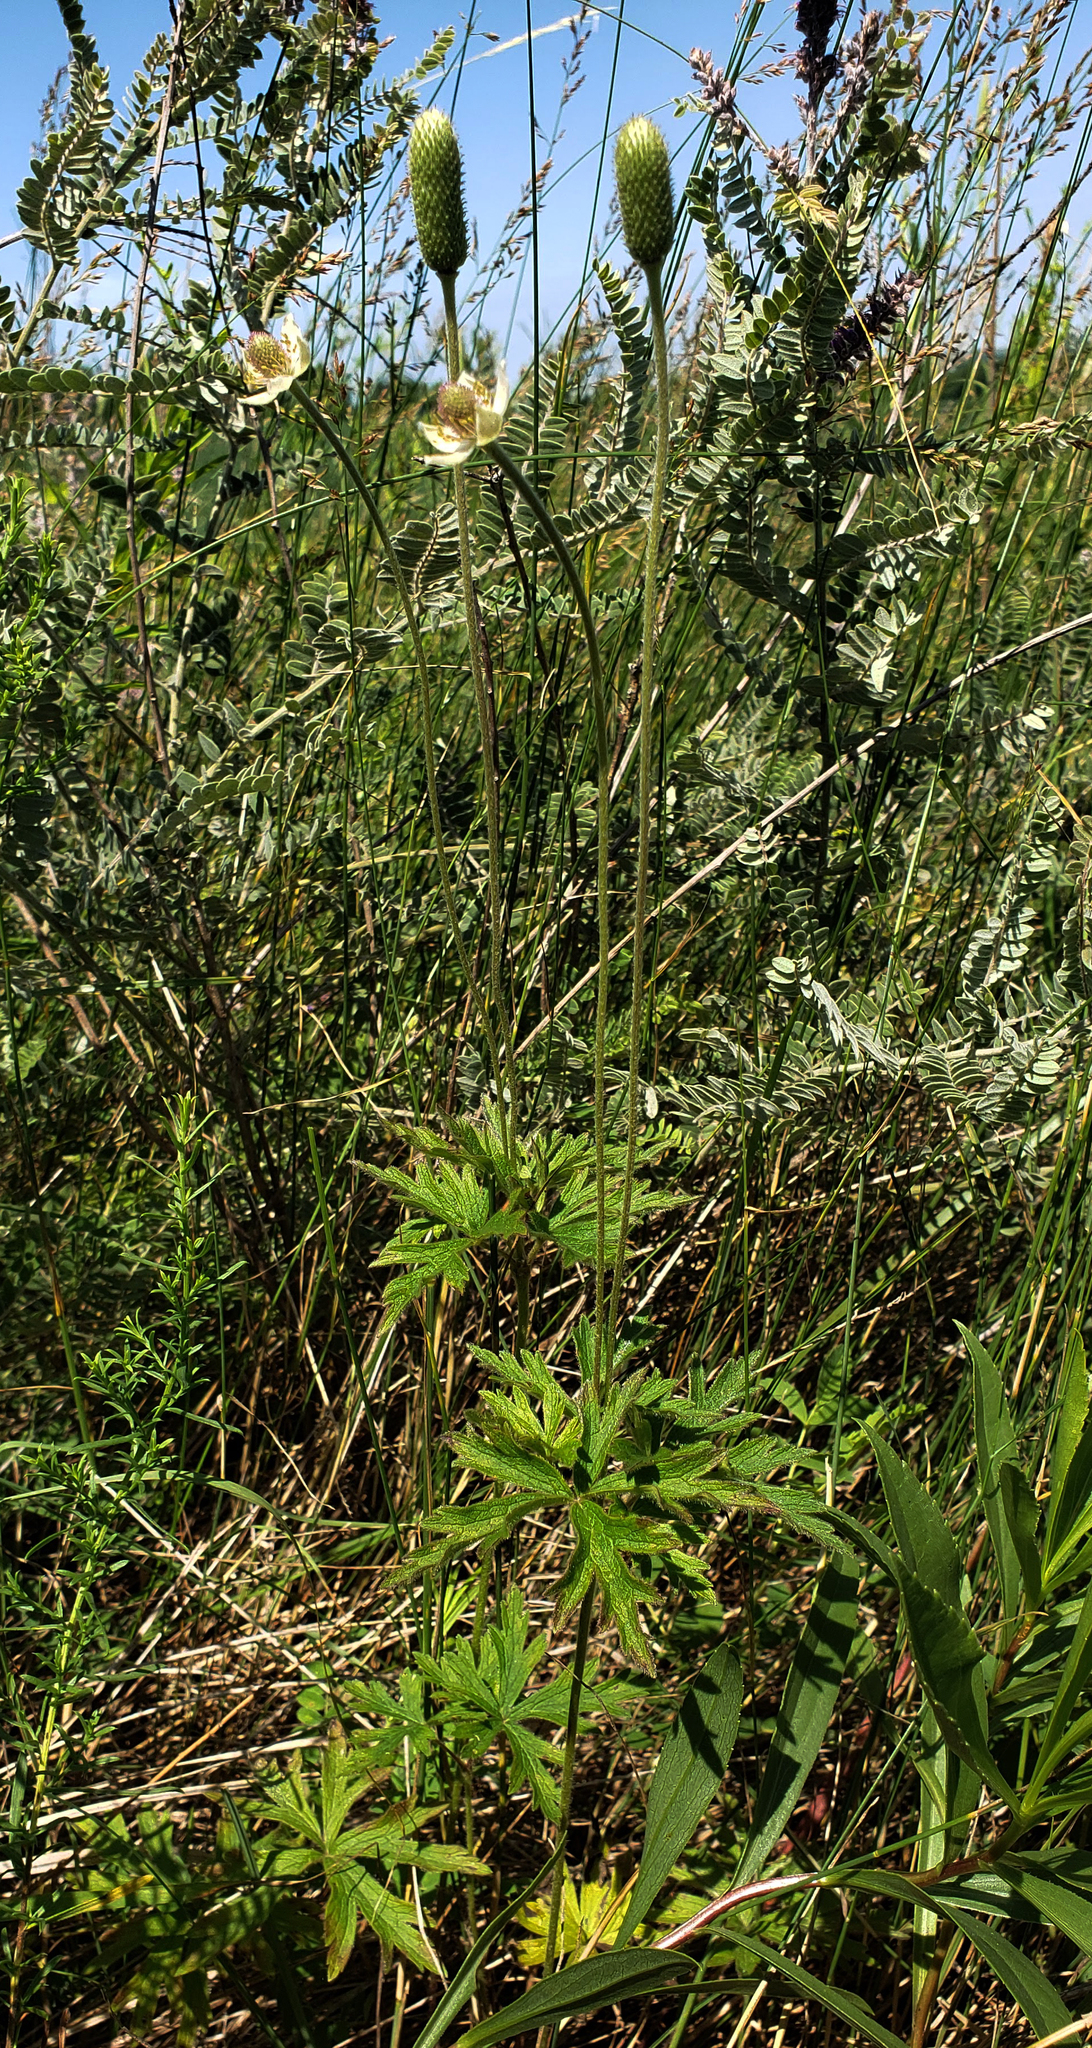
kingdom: Plantae
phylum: Tracheophyta
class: Magnoliopsida
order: Ranunculales
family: Ranunculaceae
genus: Anemone
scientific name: Anemone cylindrica
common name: Candle anemone
